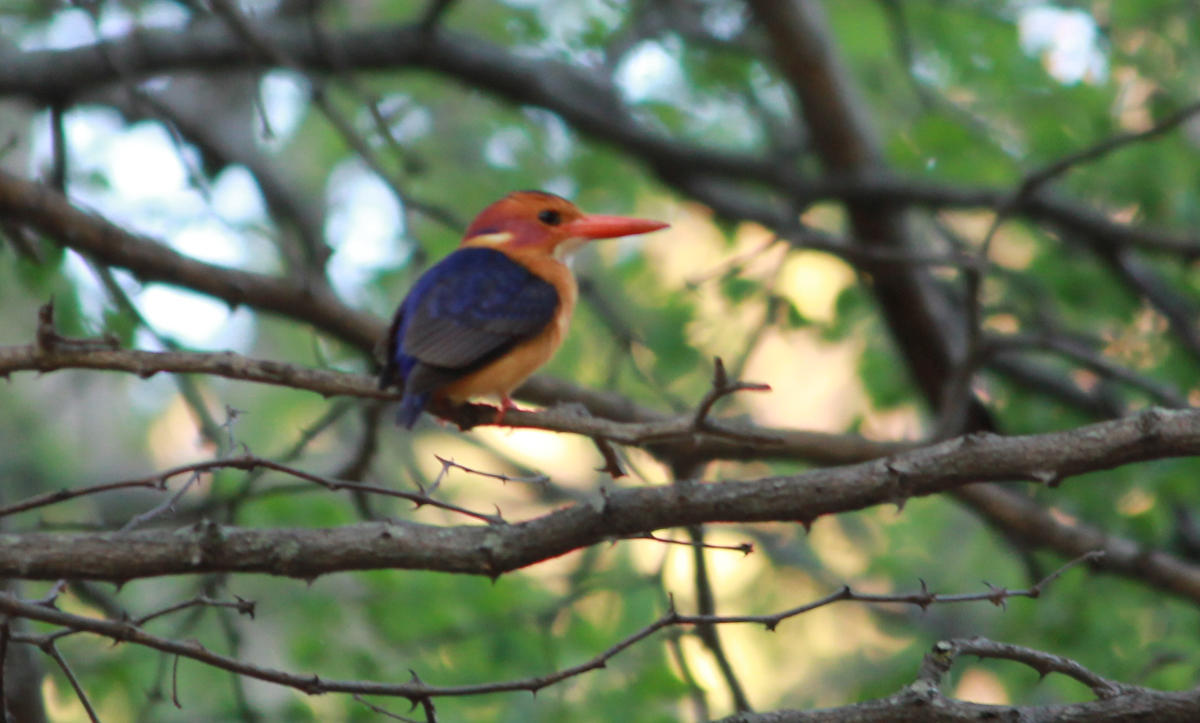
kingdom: Animalia
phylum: Chordata
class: Aves
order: Coraciiformes
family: Alcedinidae
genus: Ispidina
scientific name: Ispidina picta
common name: African pygmy-kingfisher
